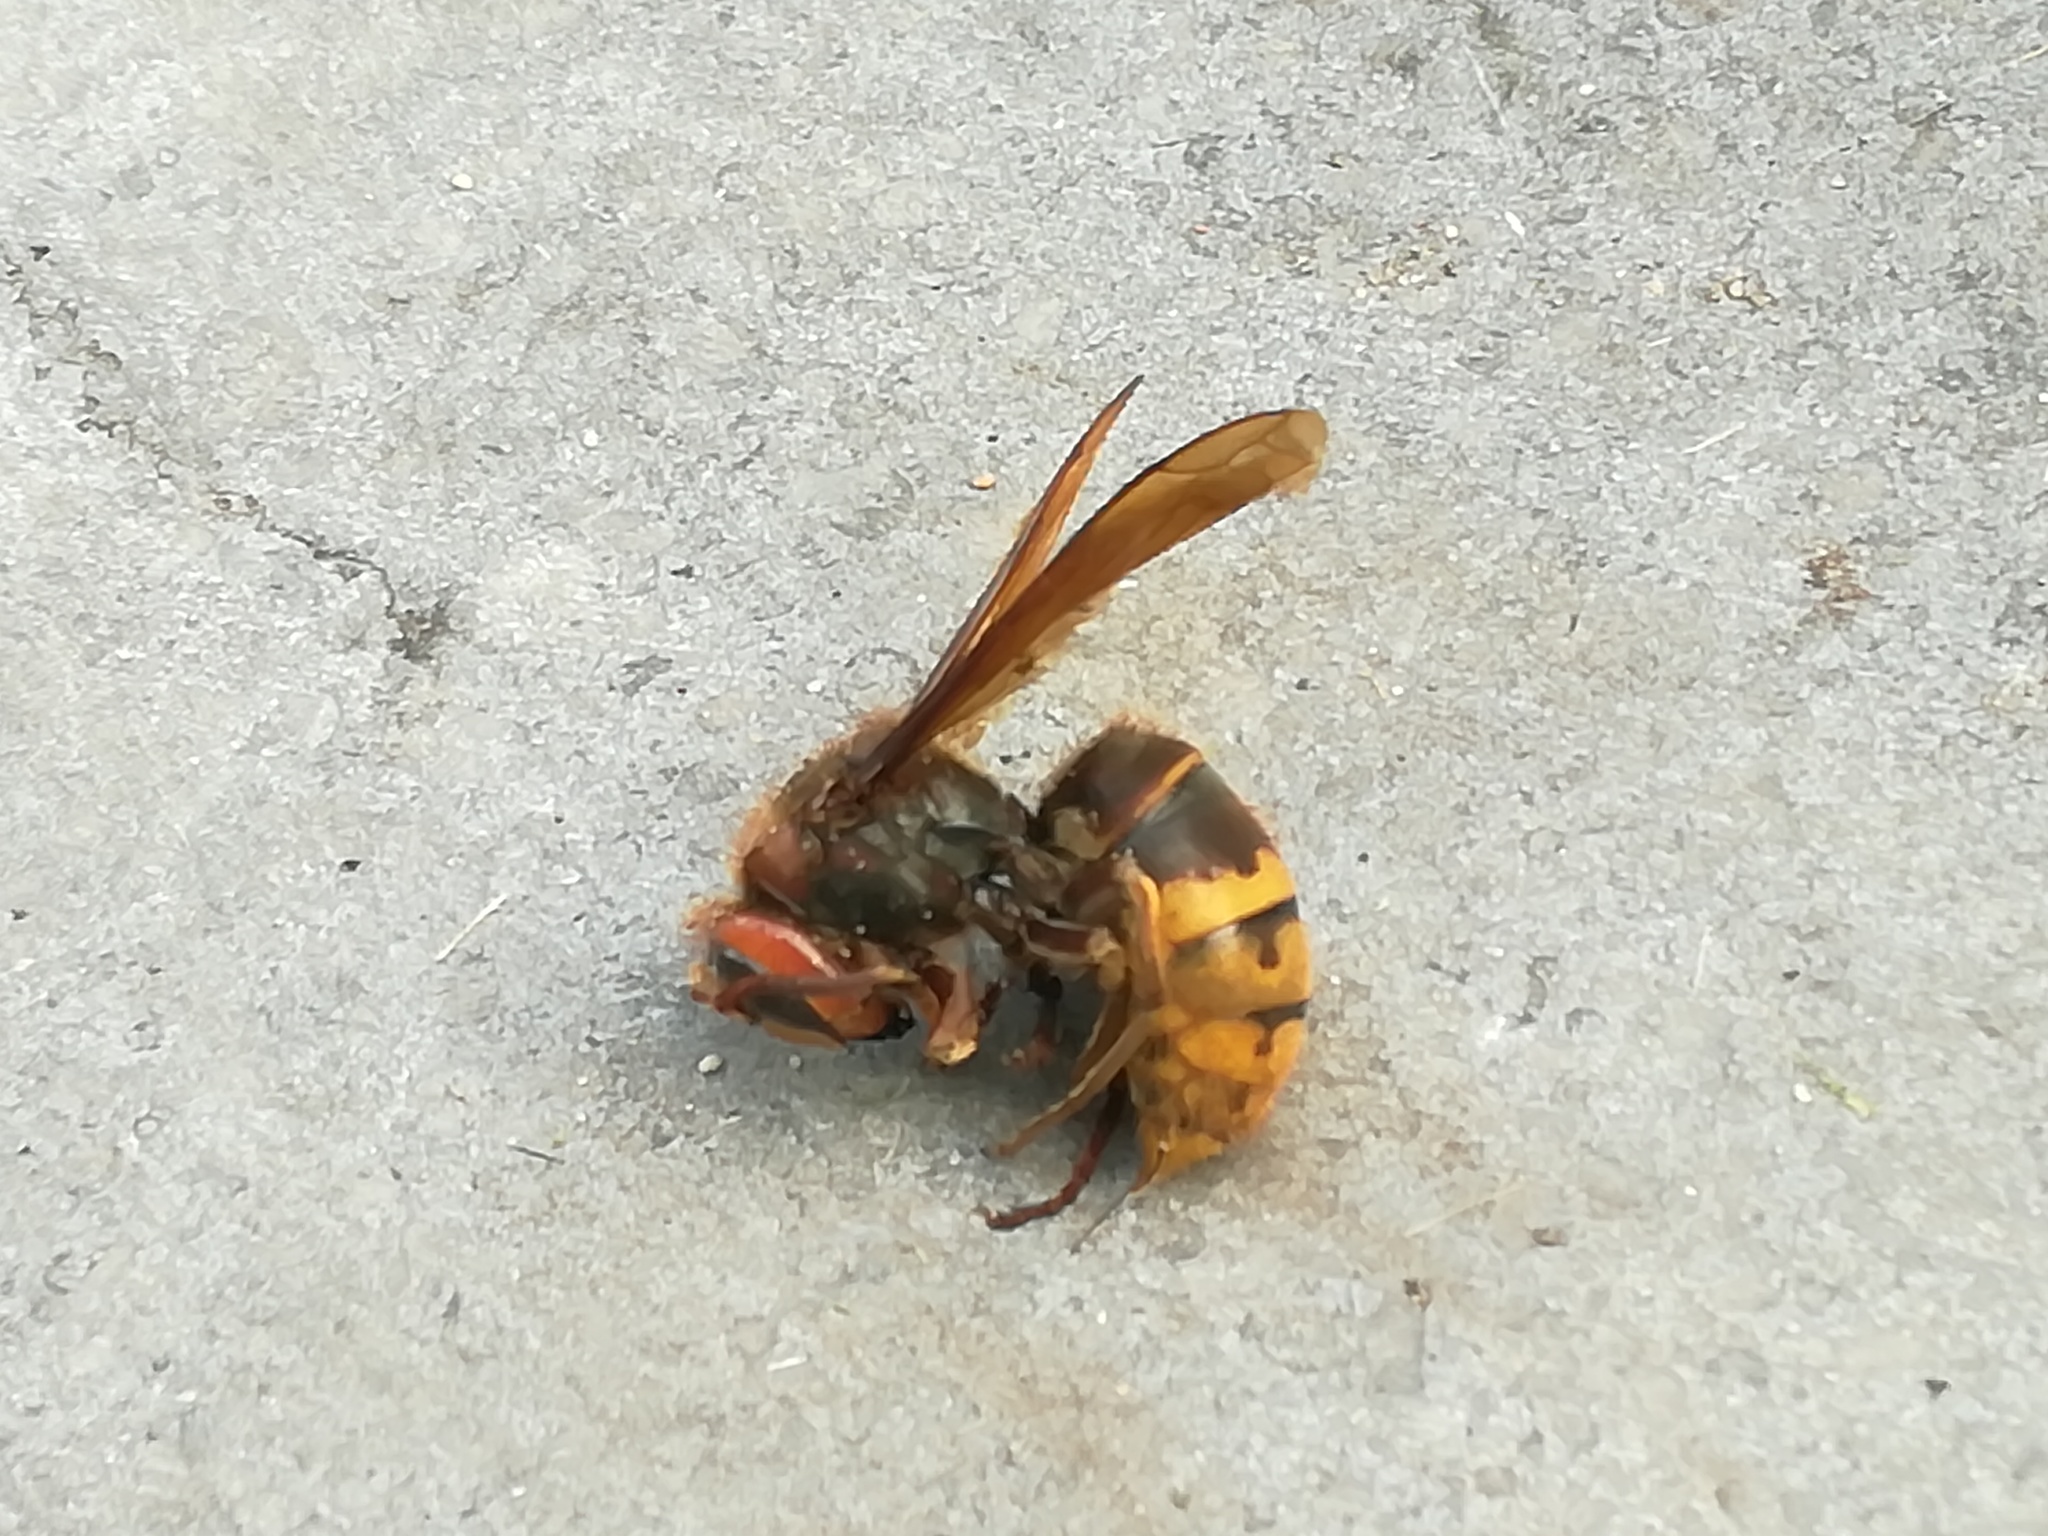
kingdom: Animalia
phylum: Arthropoda
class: Insecta
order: Hymenoptera
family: Vespidae
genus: Vespa
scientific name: Vespa crabro
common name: Hornet
